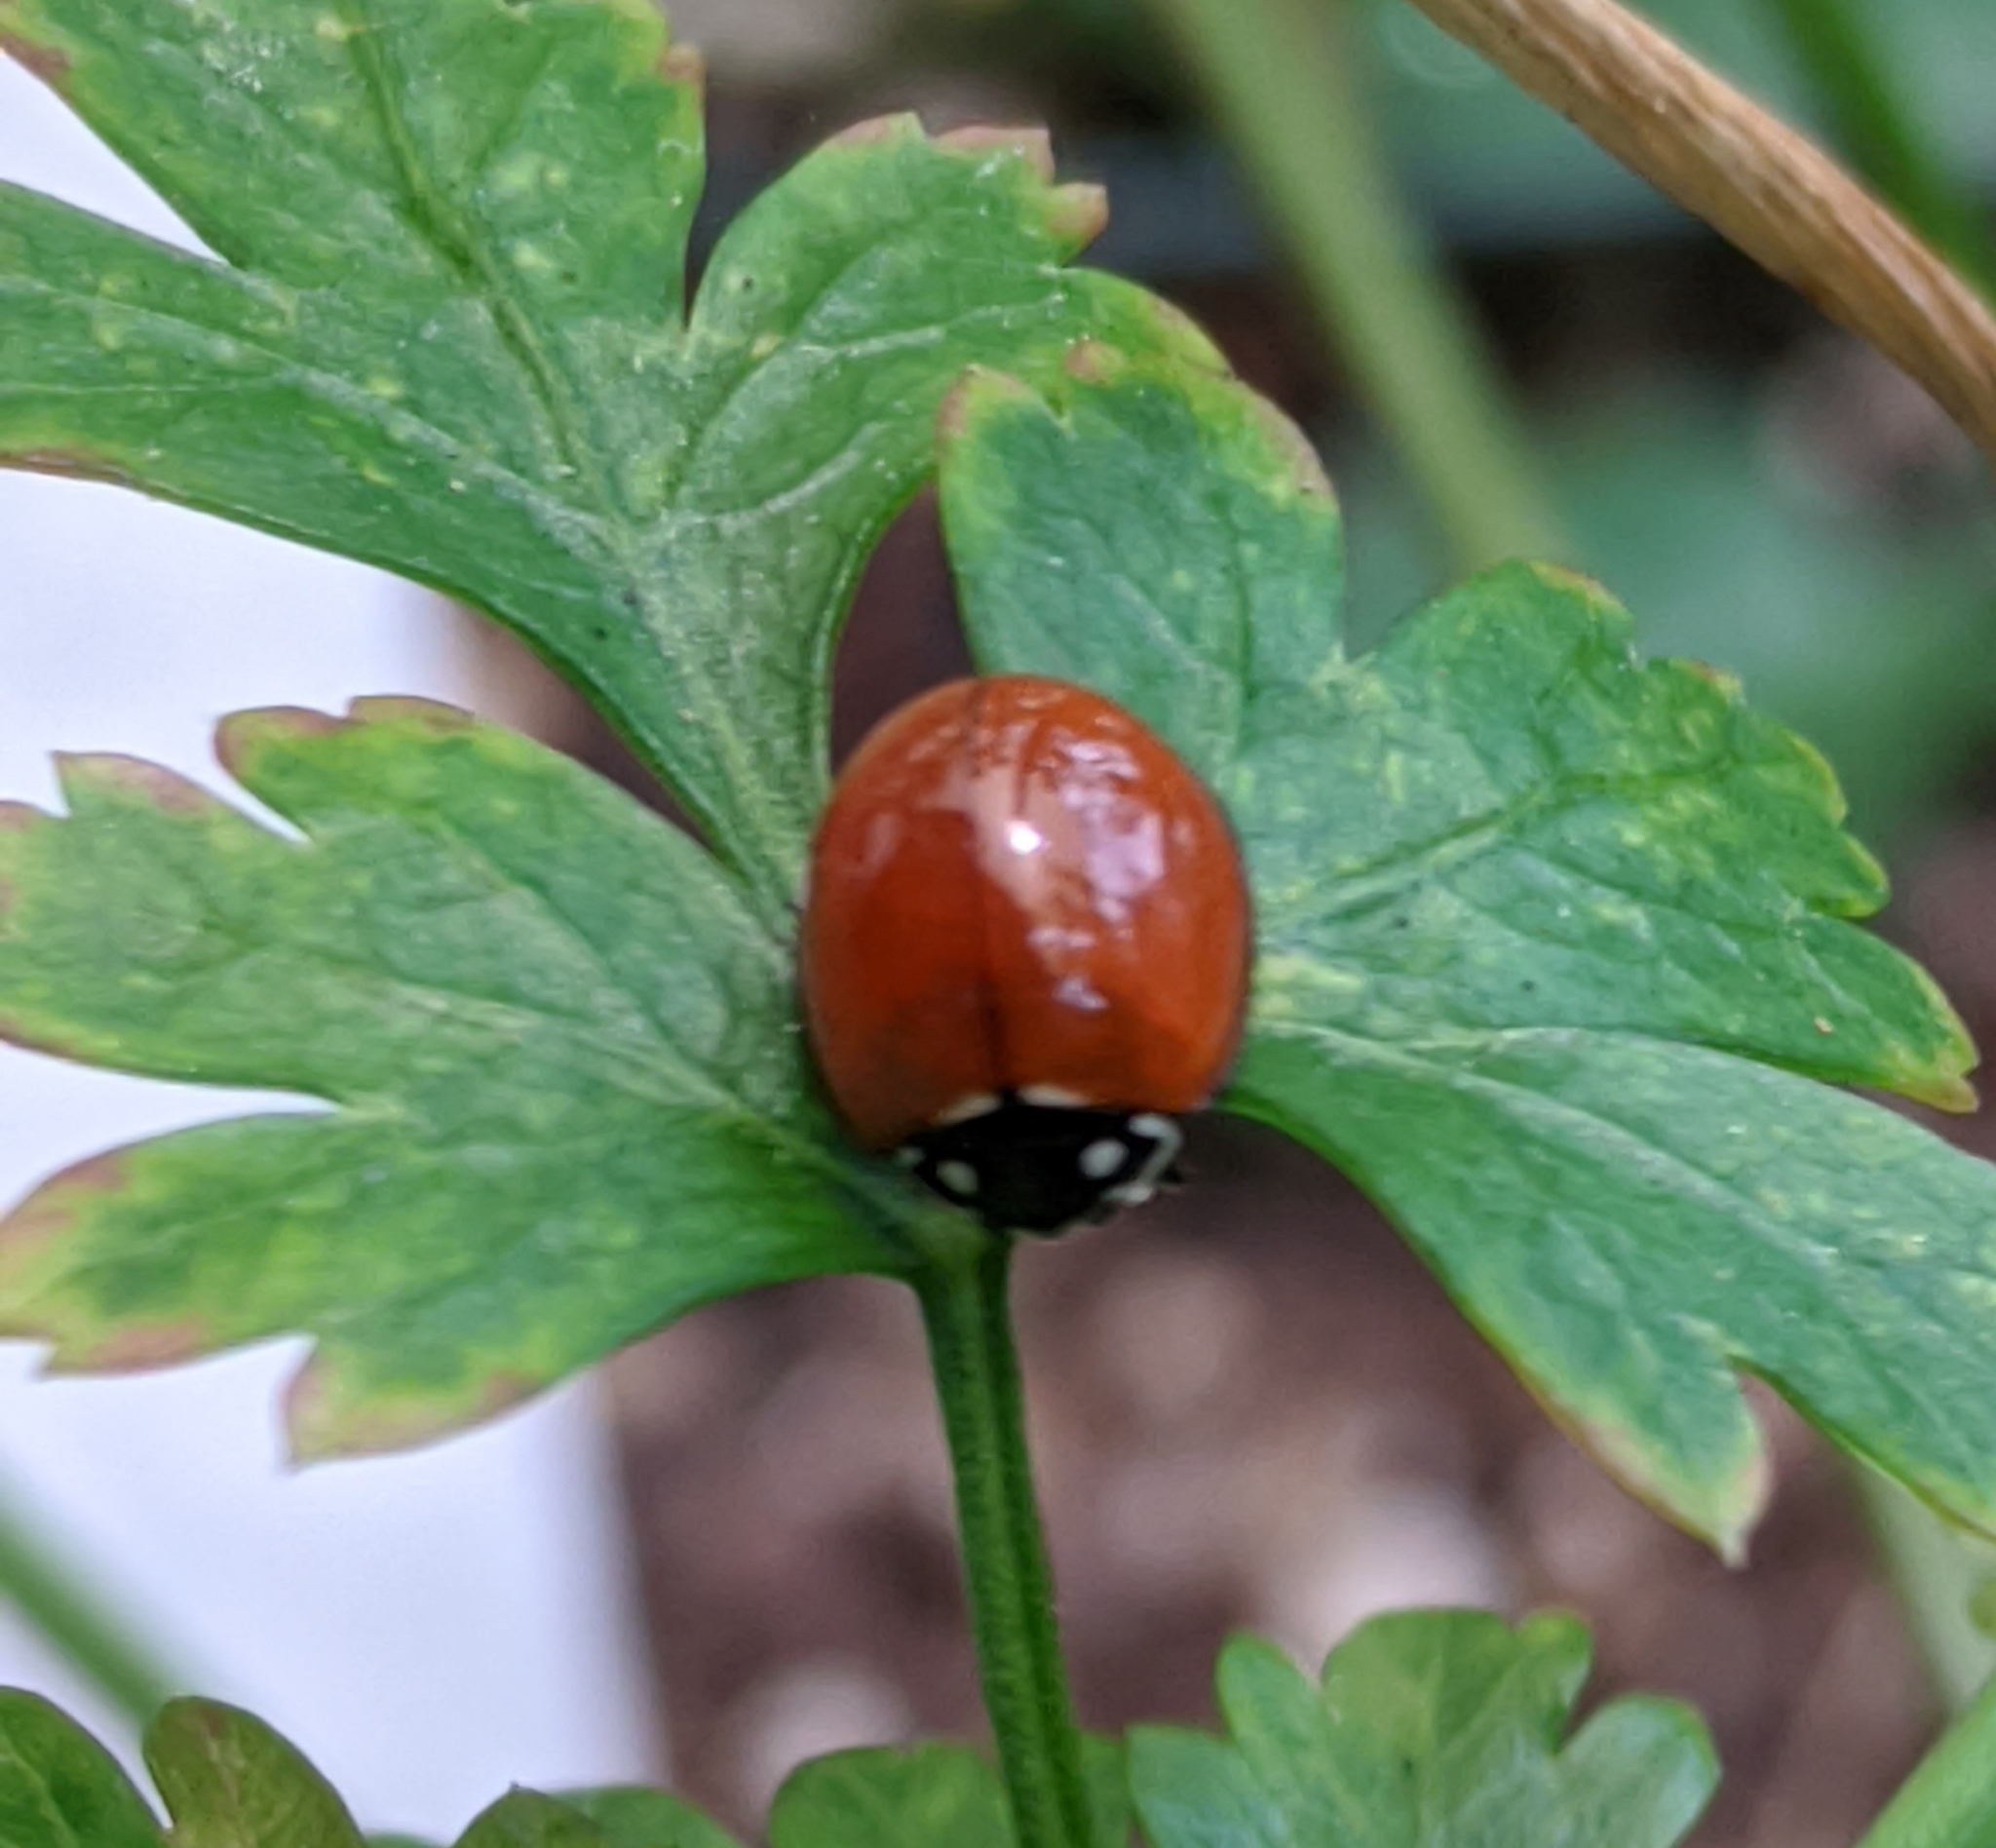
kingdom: Animalia
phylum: Arthropoda
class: Insecta
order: Coleoptera
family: Coccinellidae
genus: Cycloneda
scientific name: Cycloneda sanguinea
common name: Ladybird beetle
